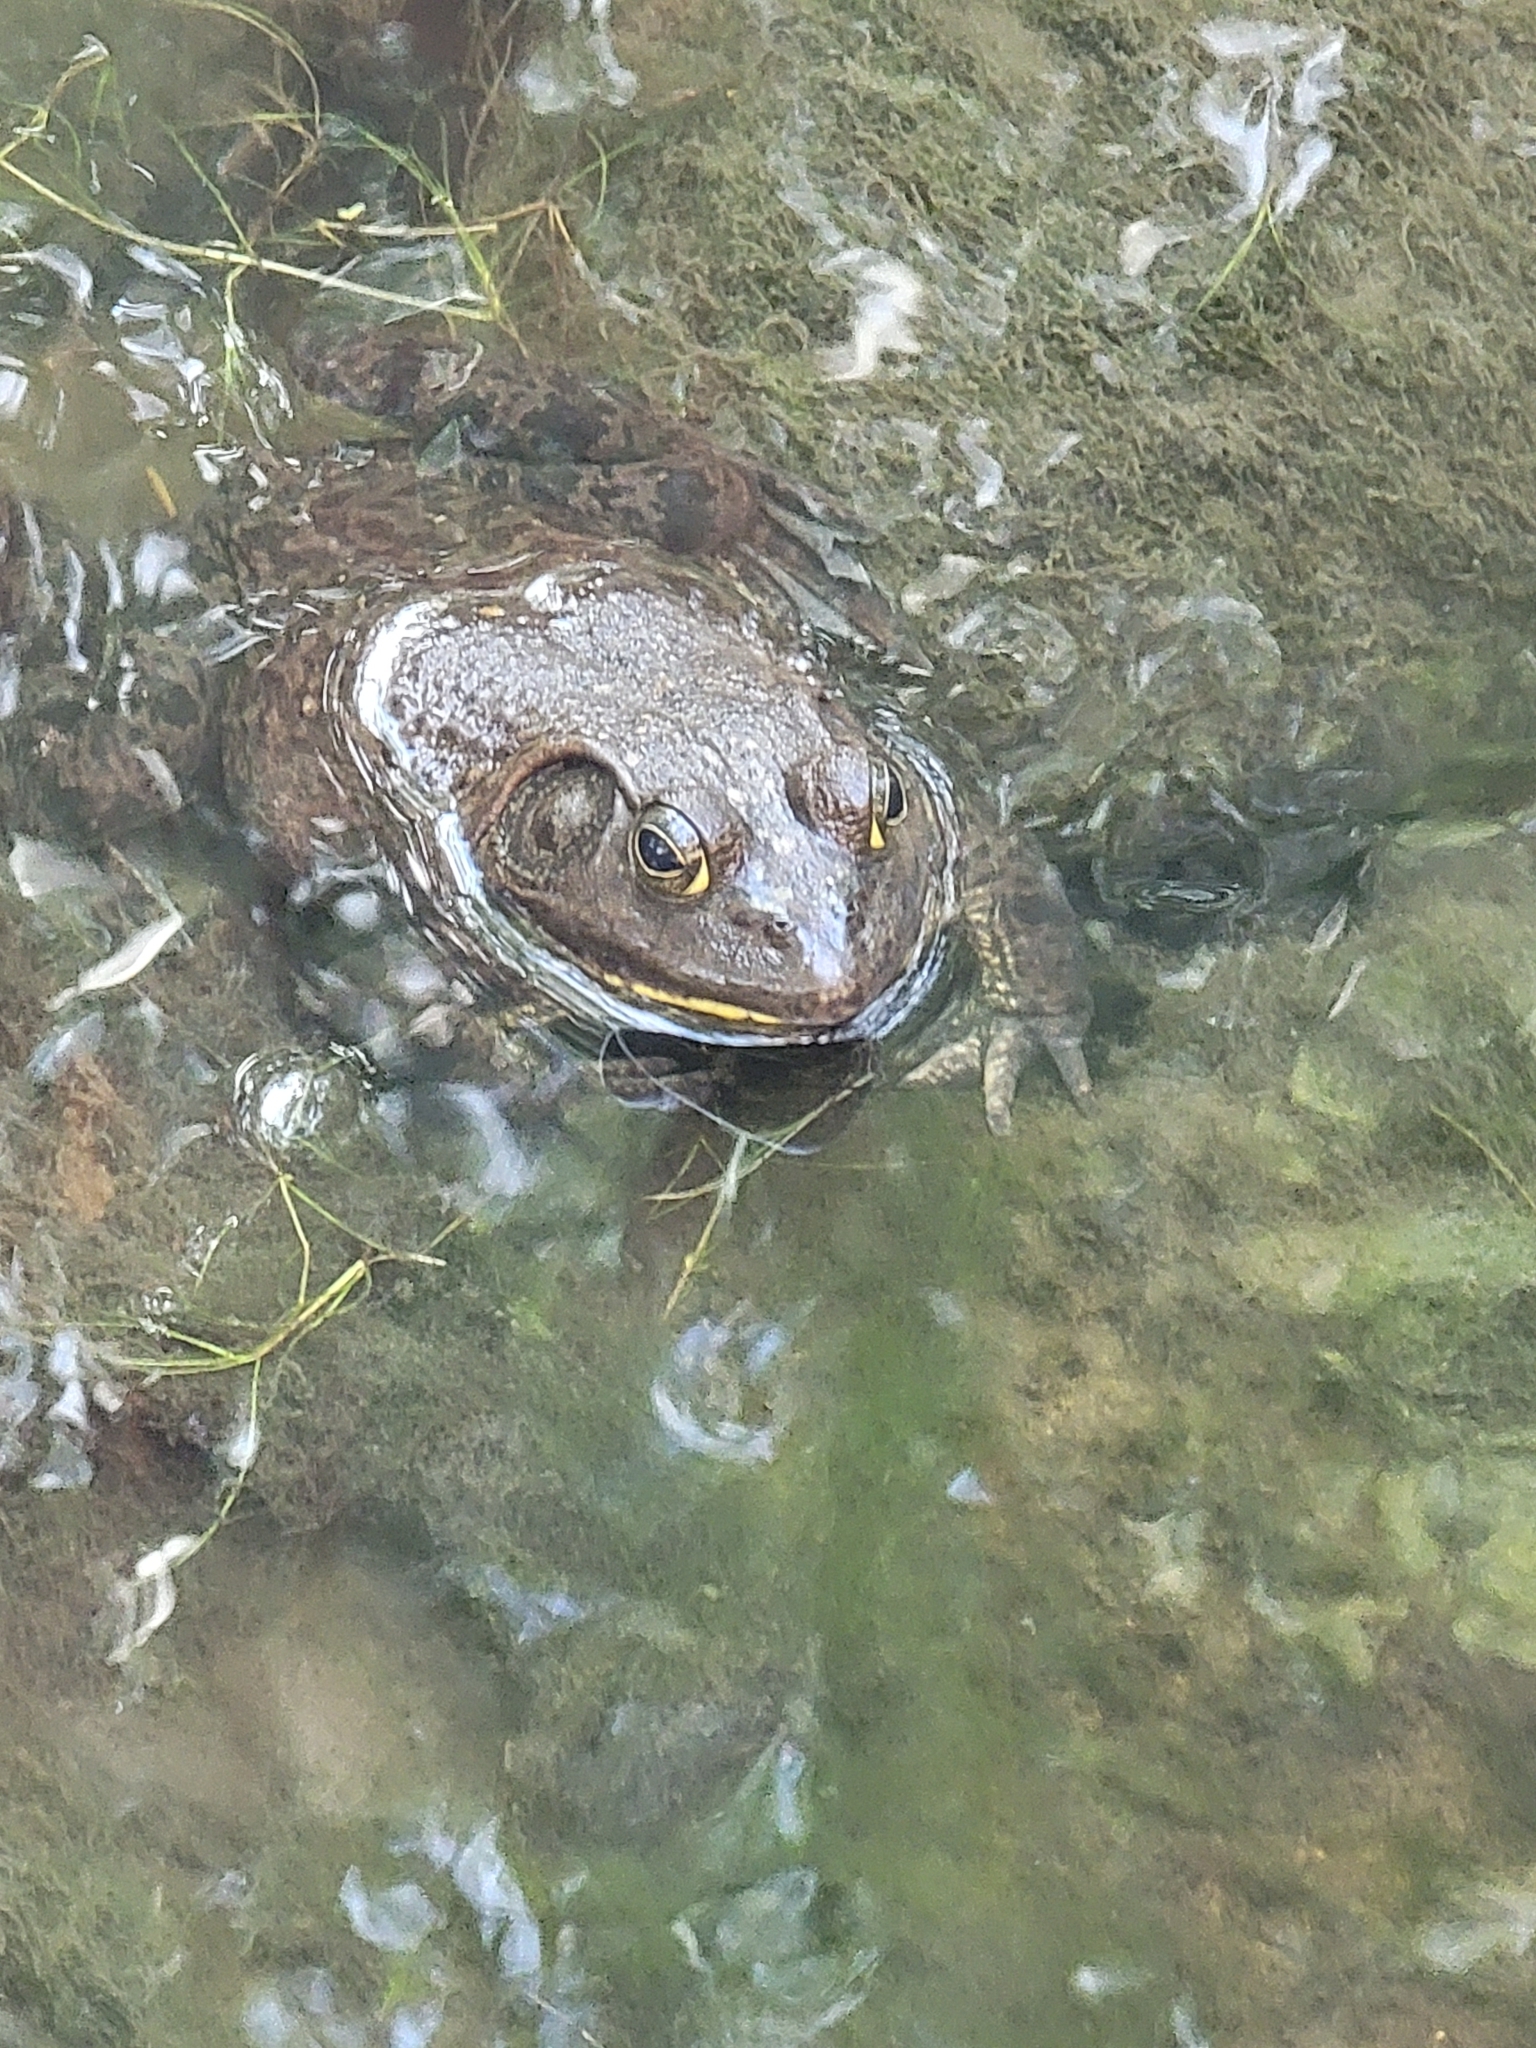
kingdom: Animalia
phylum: Chordata
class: Amphibia
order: Anura
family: Ranidae
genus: Lithobates
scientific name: Lithobates catesbeianus
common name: American bullfrog
